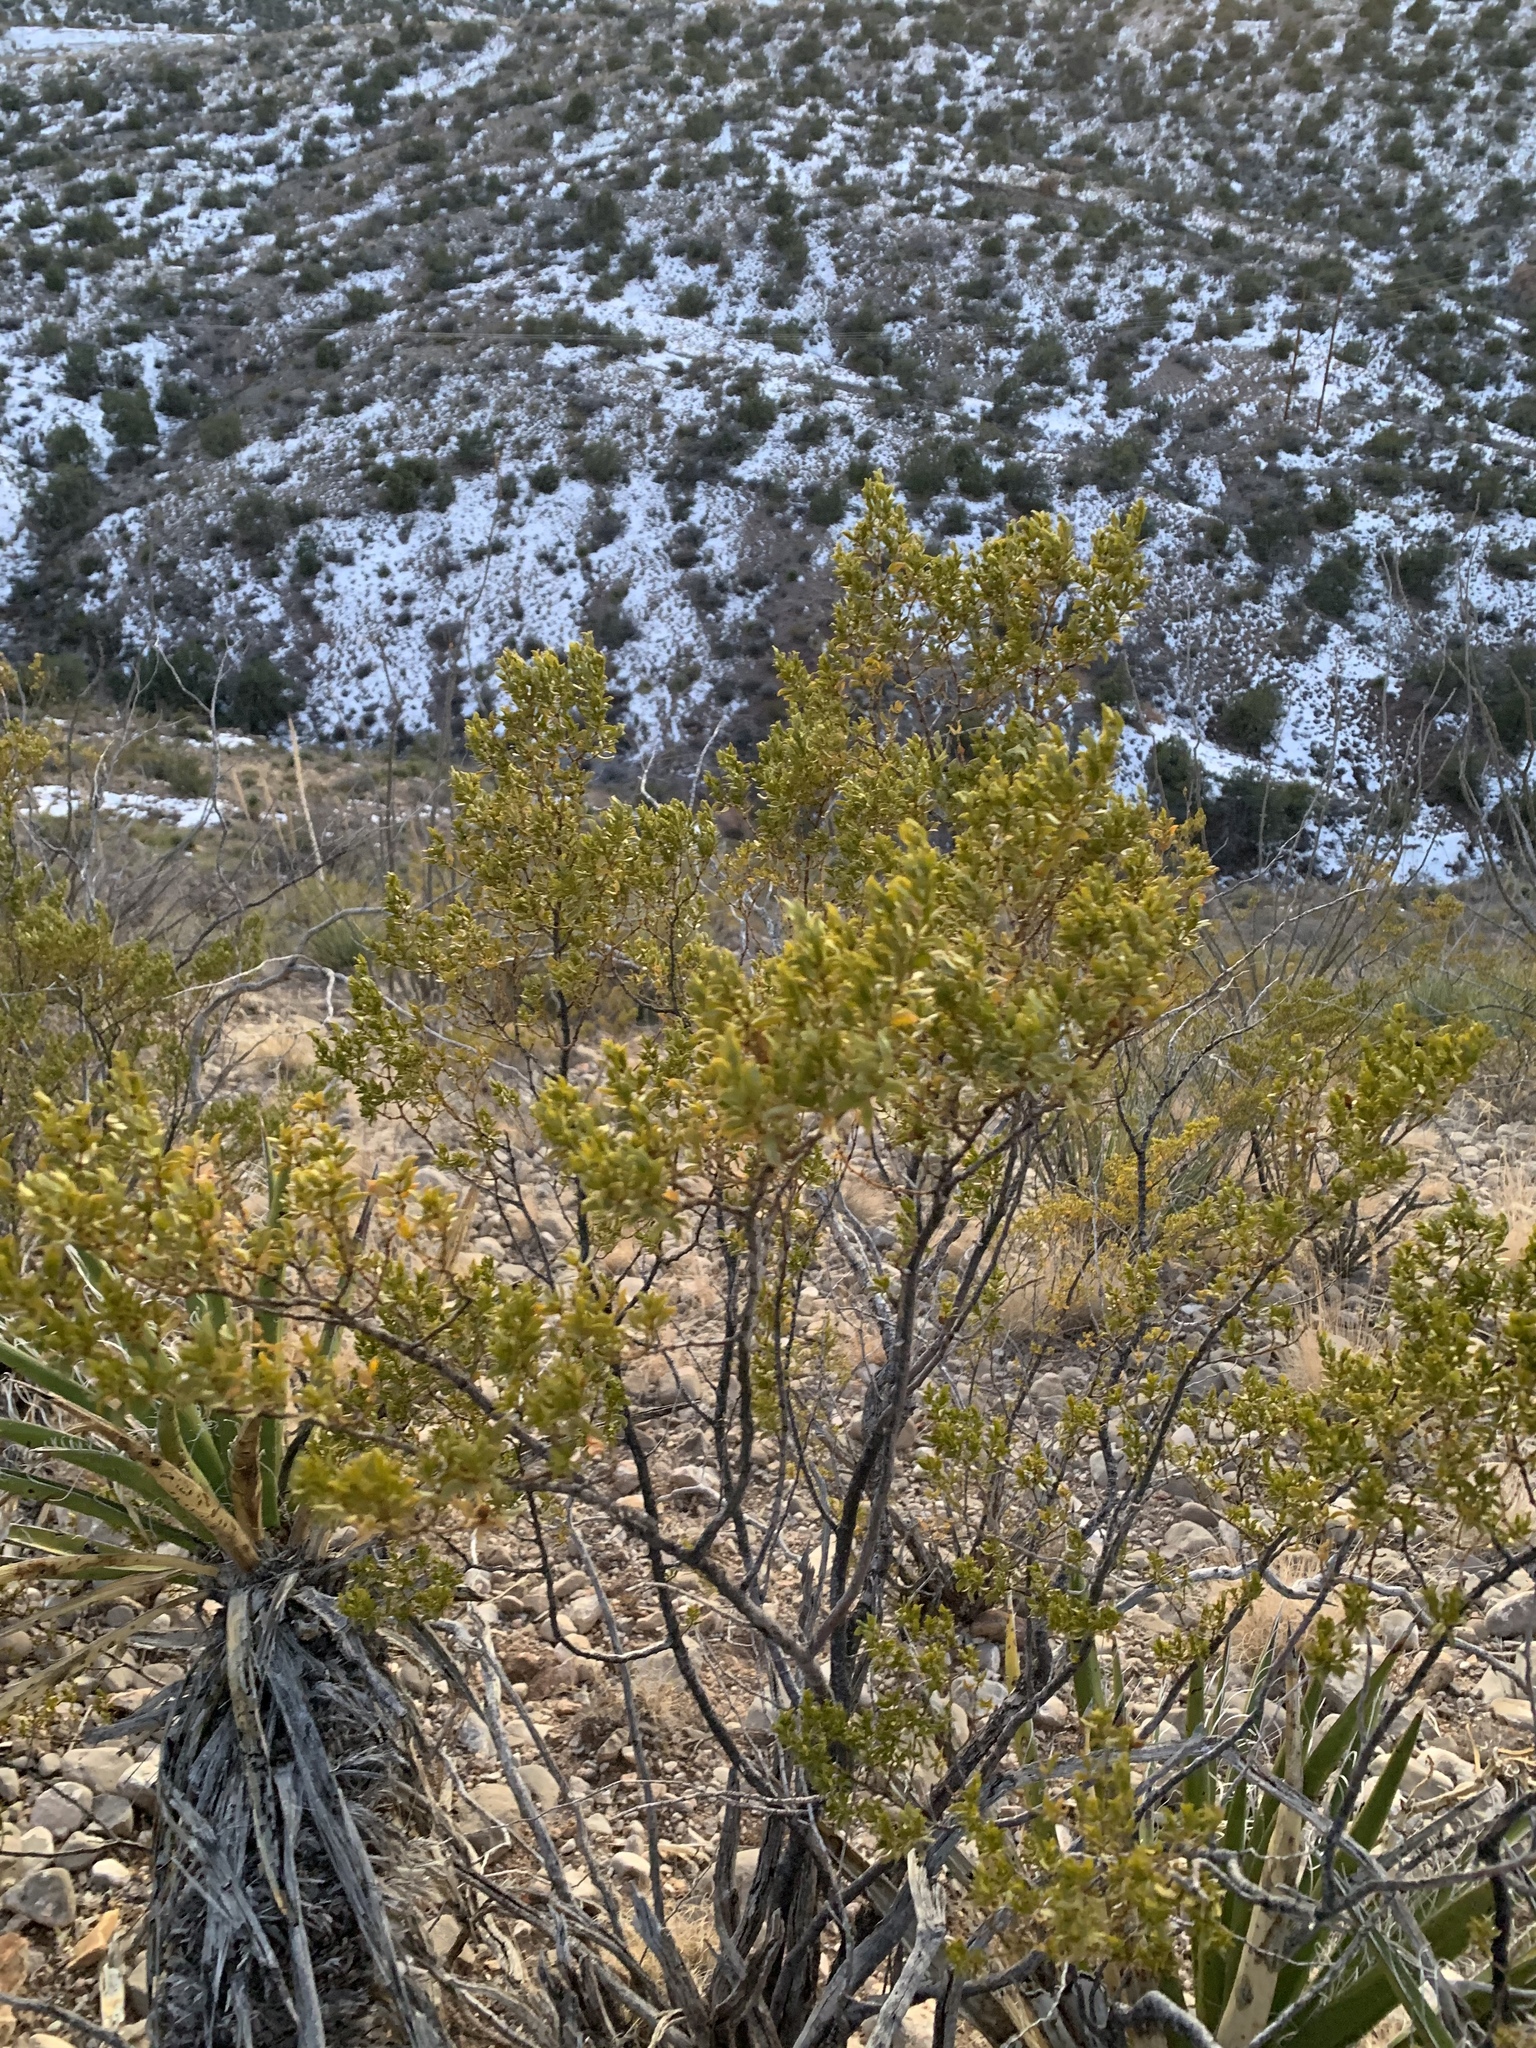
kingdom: Plantae
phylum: Tracheophyta
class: Magnoliopsida
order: Zygophyllales
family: Zygophyllaceae
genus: Larrea
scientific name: Larrea tridentata
